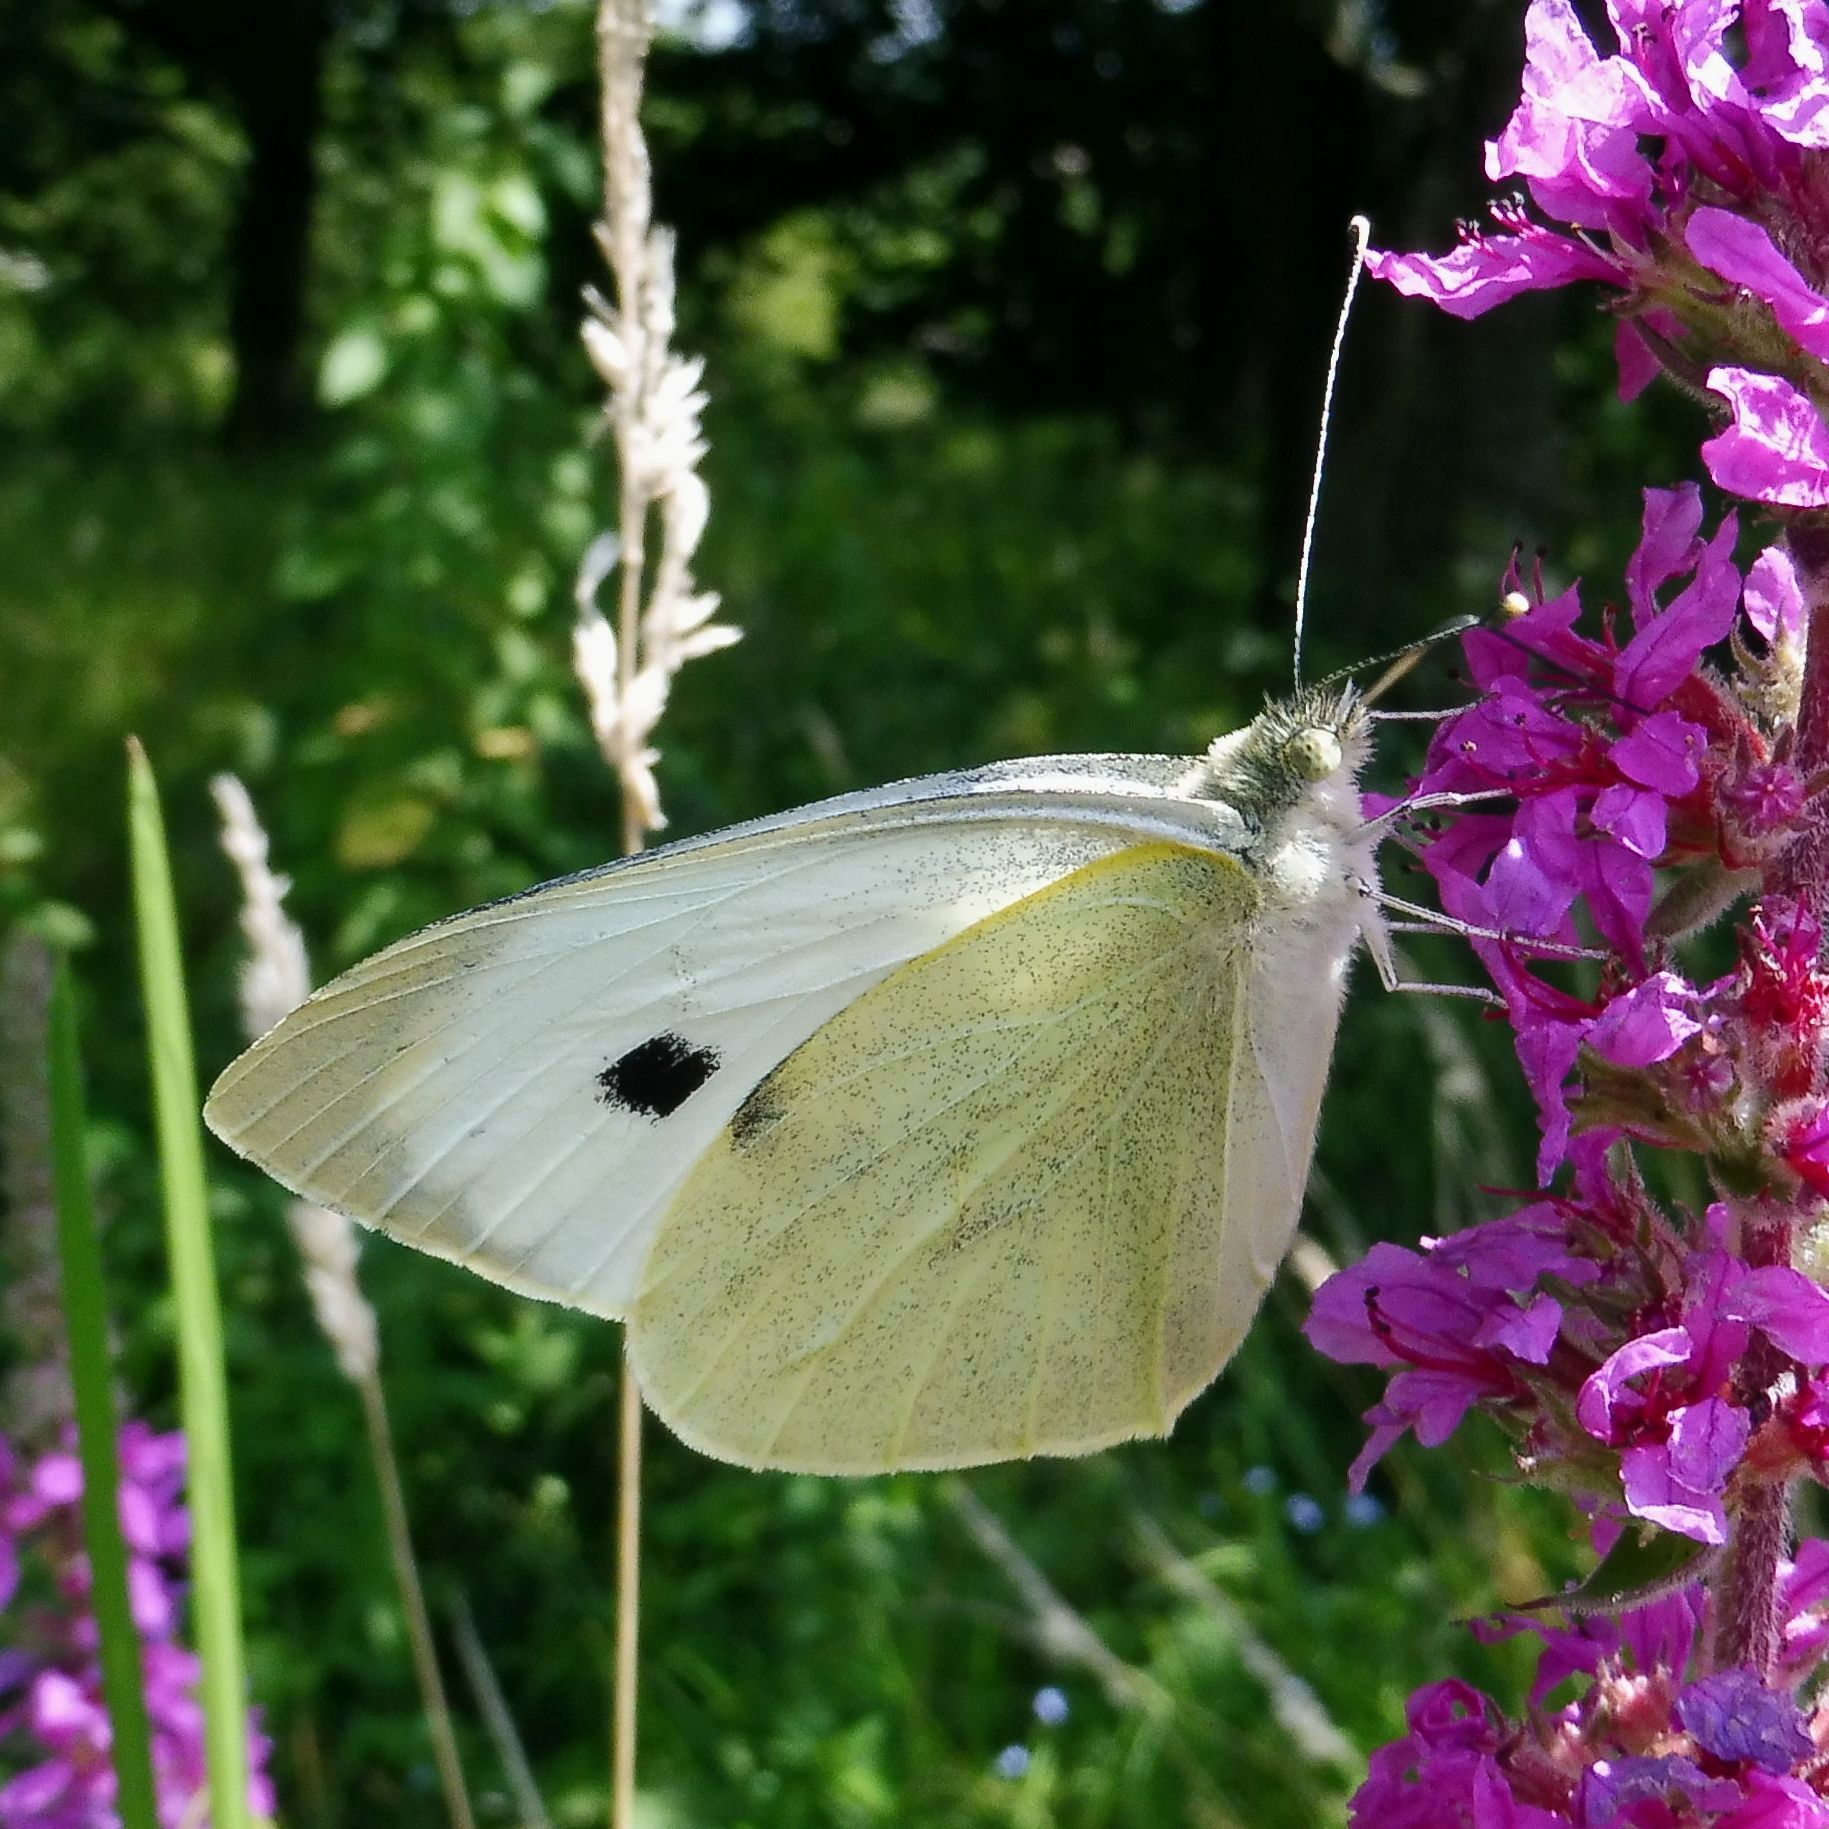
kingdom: Animalia
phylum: Arthropoda
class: Insecta
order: Lepidoptera
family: Pieridae
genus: Pieris
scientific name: Pieris brassicae
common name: Large white
